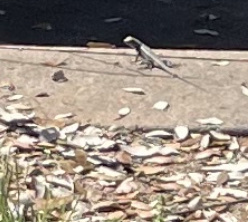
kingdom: Animalia
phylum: Chordata
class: Squamata
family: Phrynosomatidae
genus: Sceloporus
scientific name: Sceloporus olivaceus
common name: Texas spiny lizard
